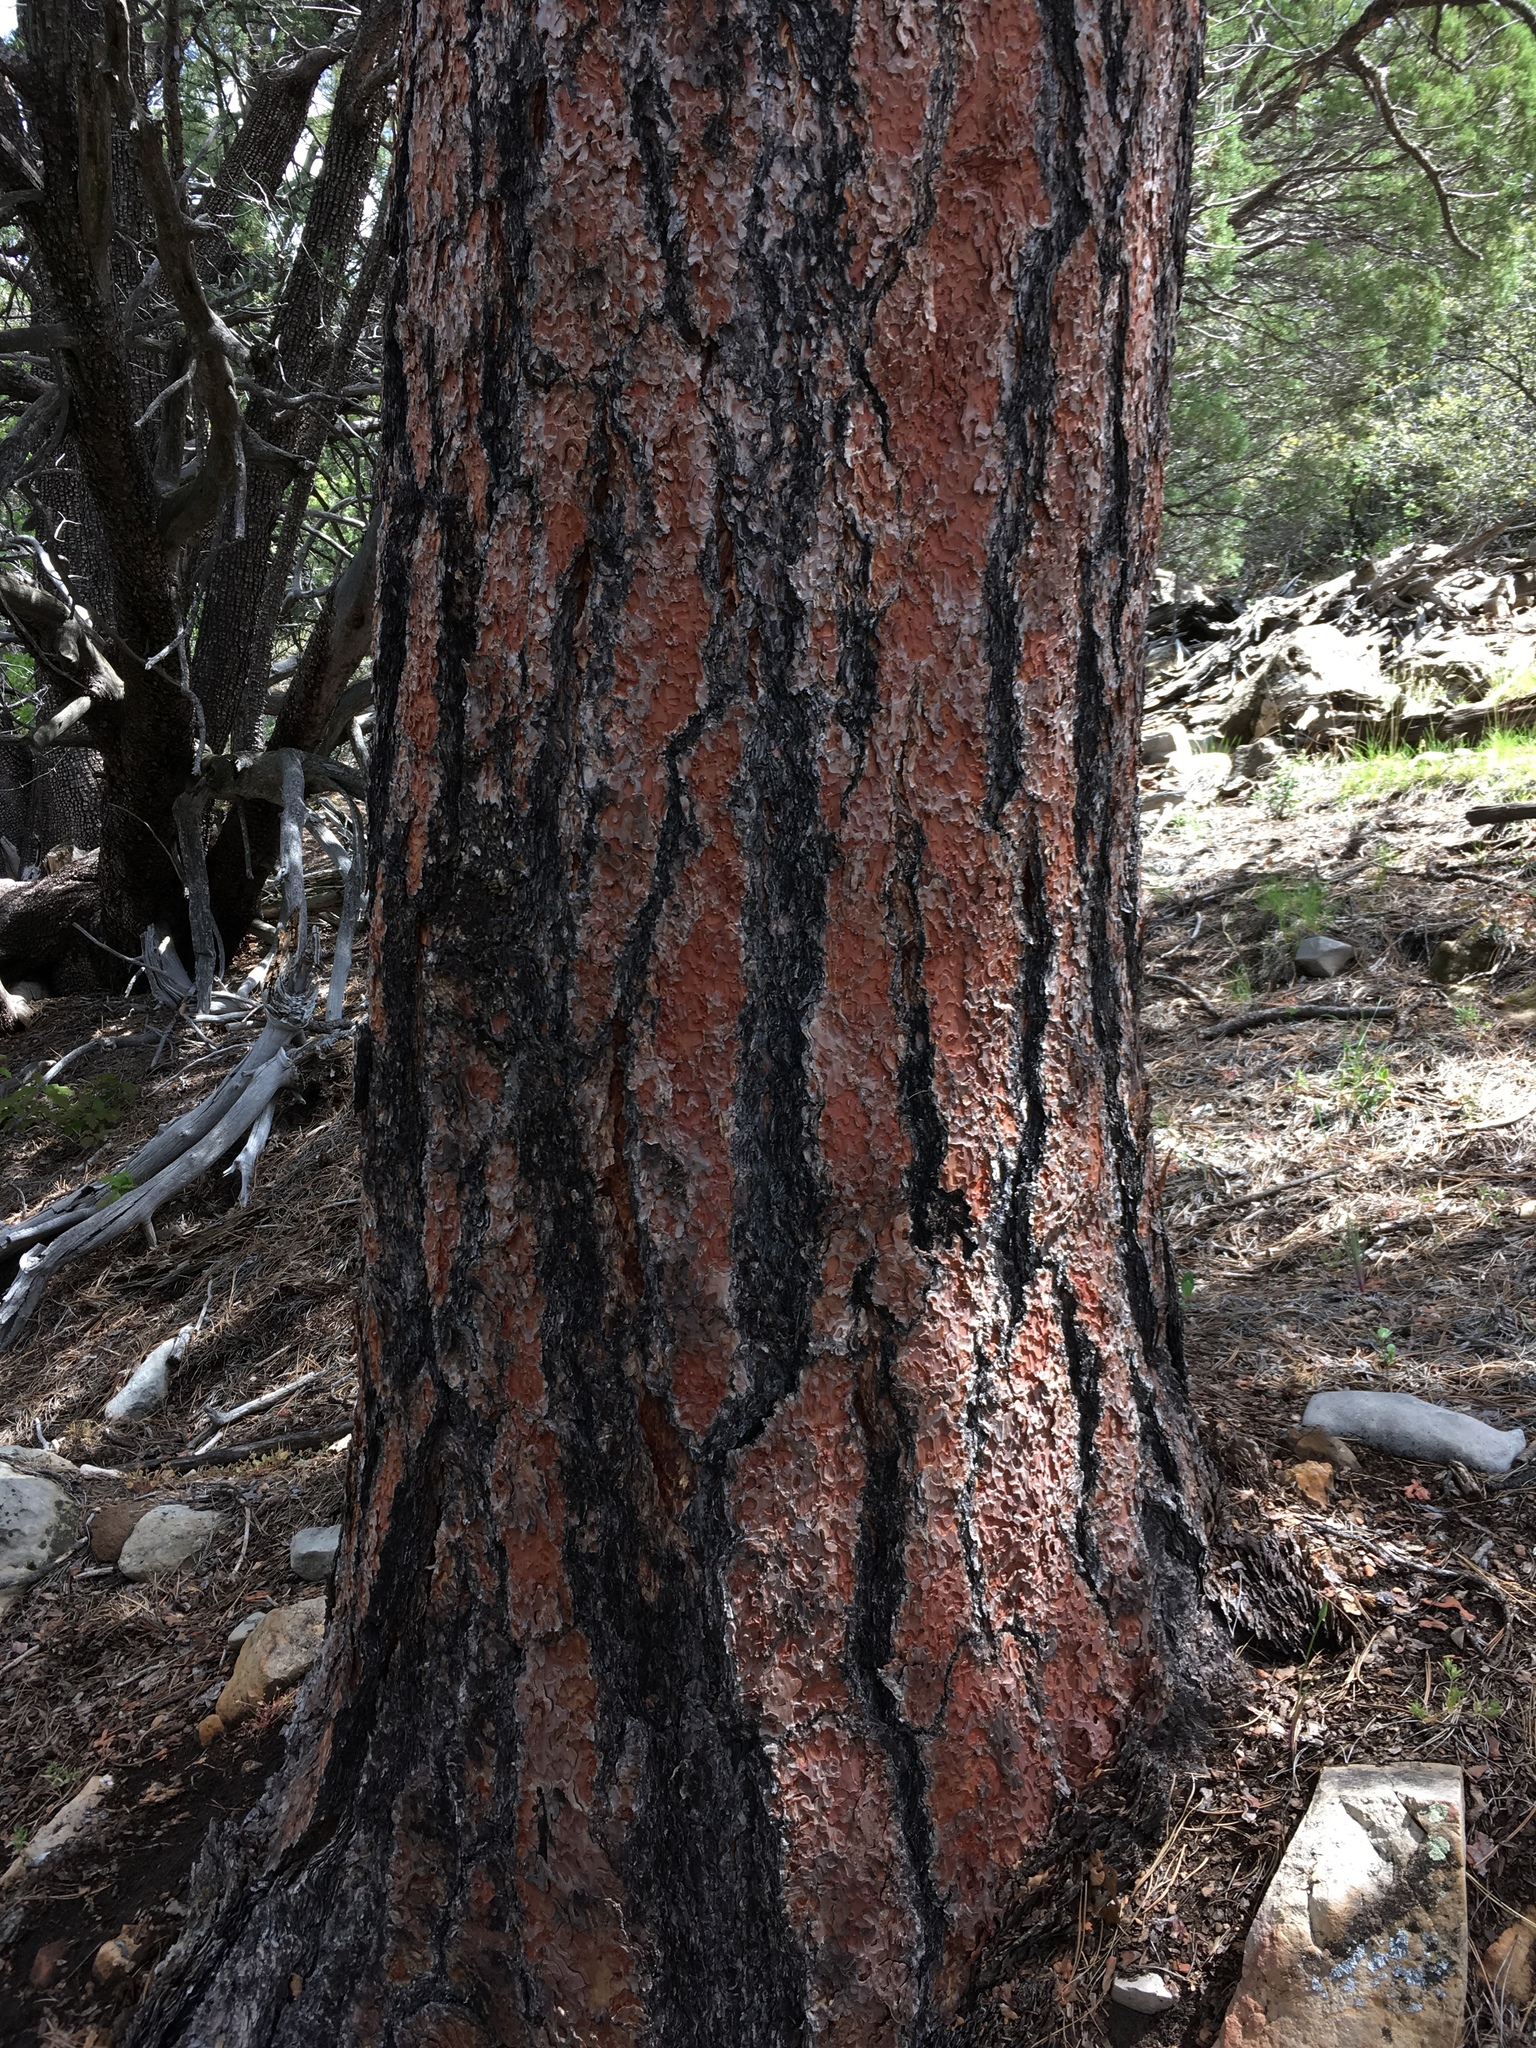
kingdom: Plantae
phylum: Tracheophyta
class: Pinopsida
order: Pinales
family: Pinaceae
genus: Pinus
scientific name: Pinus ponderosa
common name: Western yellow-pine
